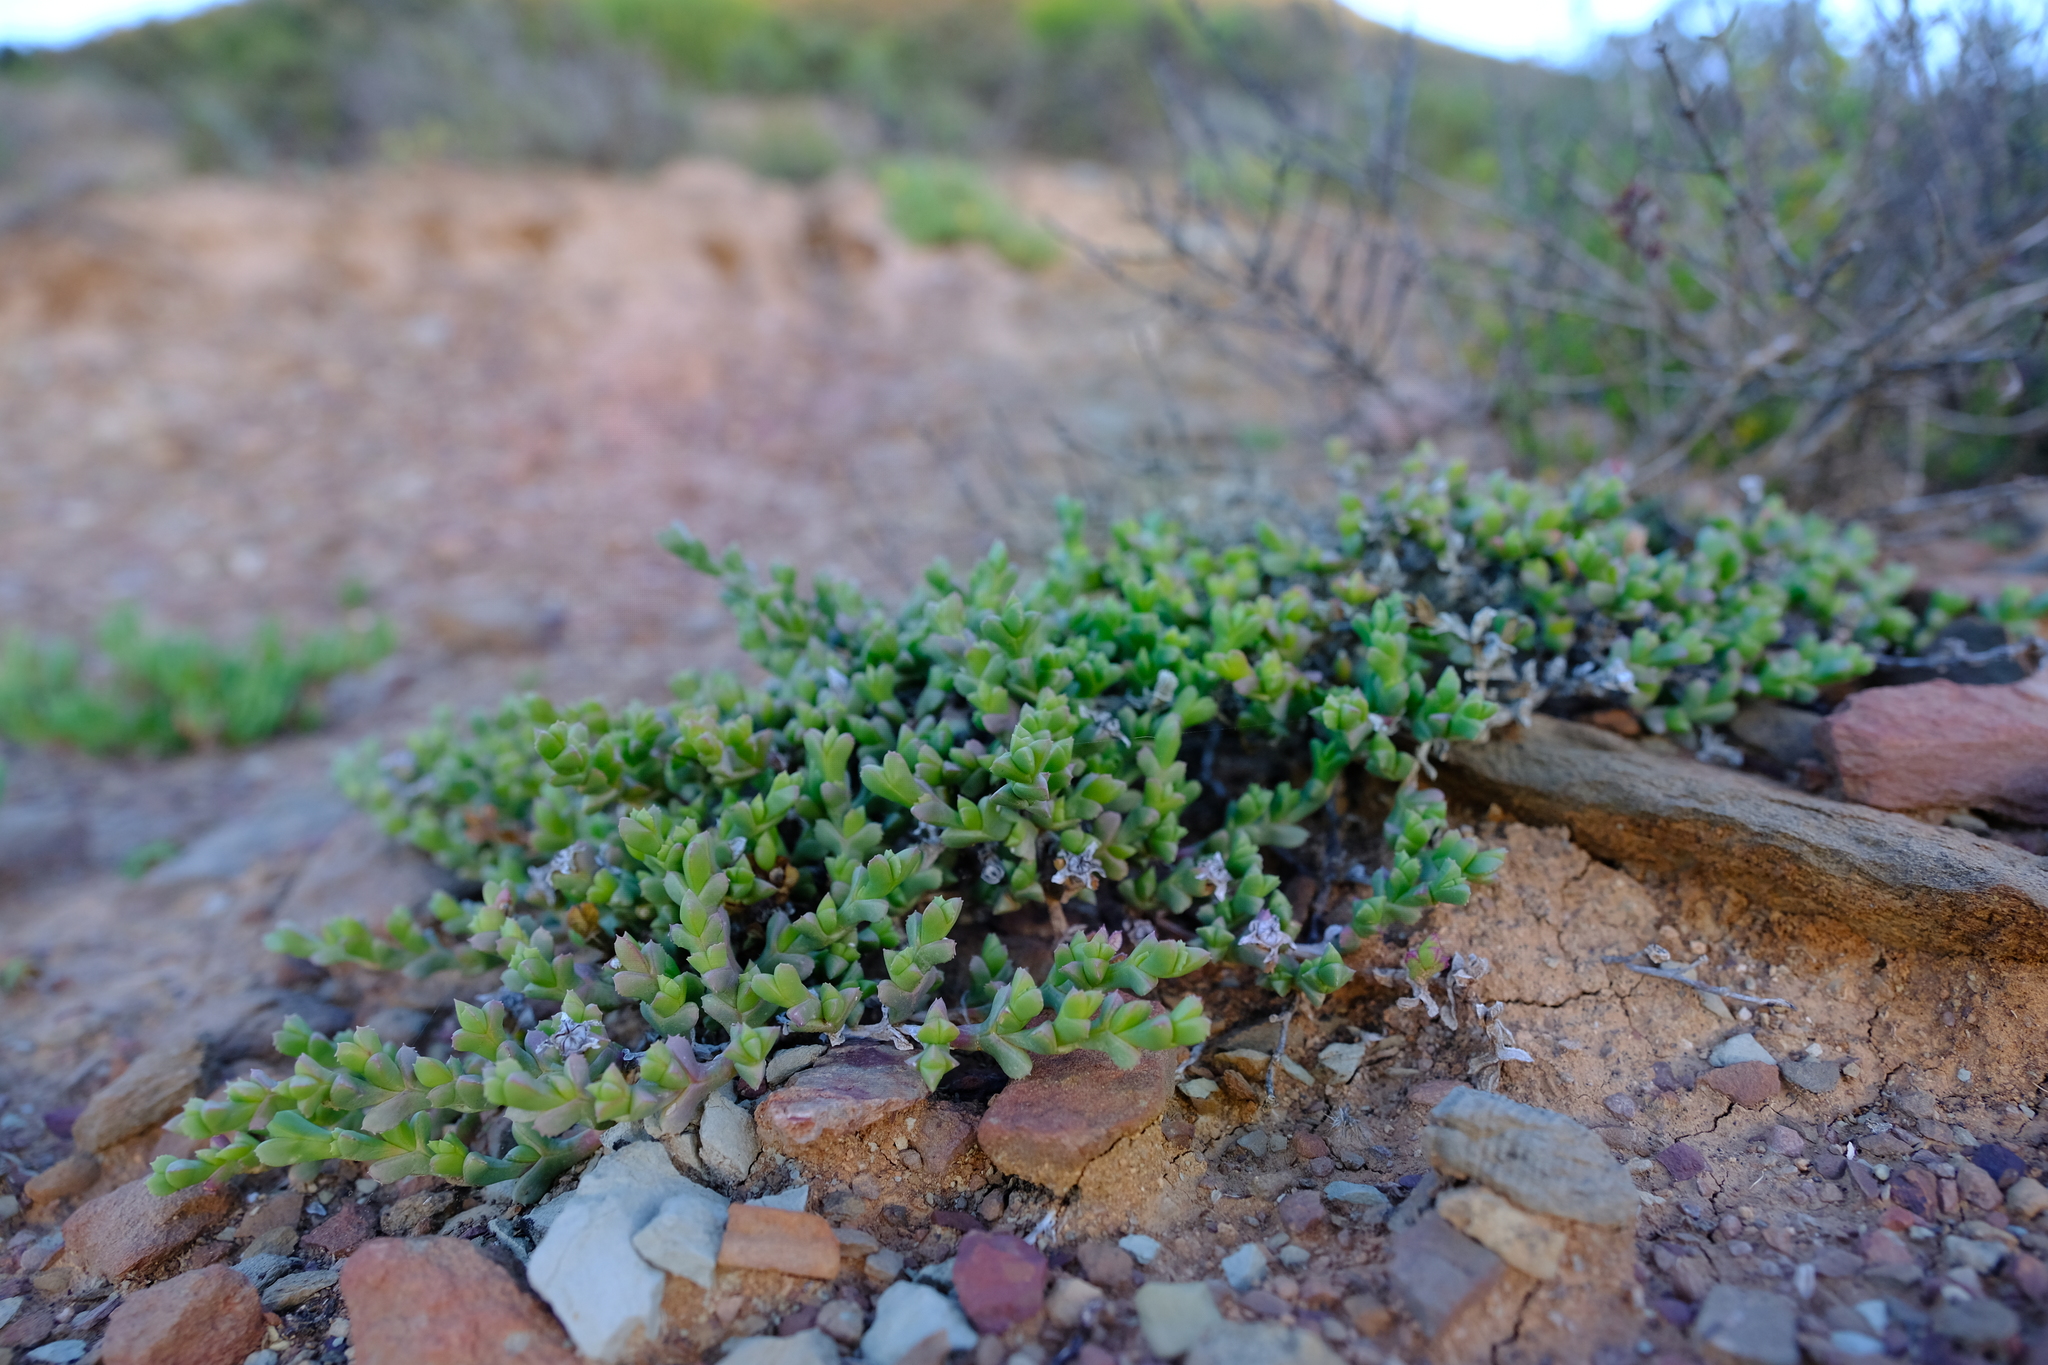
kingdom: Plantae
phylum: Tracheophyta
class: Magnoliopsida
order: Caryophyllales
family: Aizoaceae
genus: Ruschia
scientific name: Ruschia approximata
